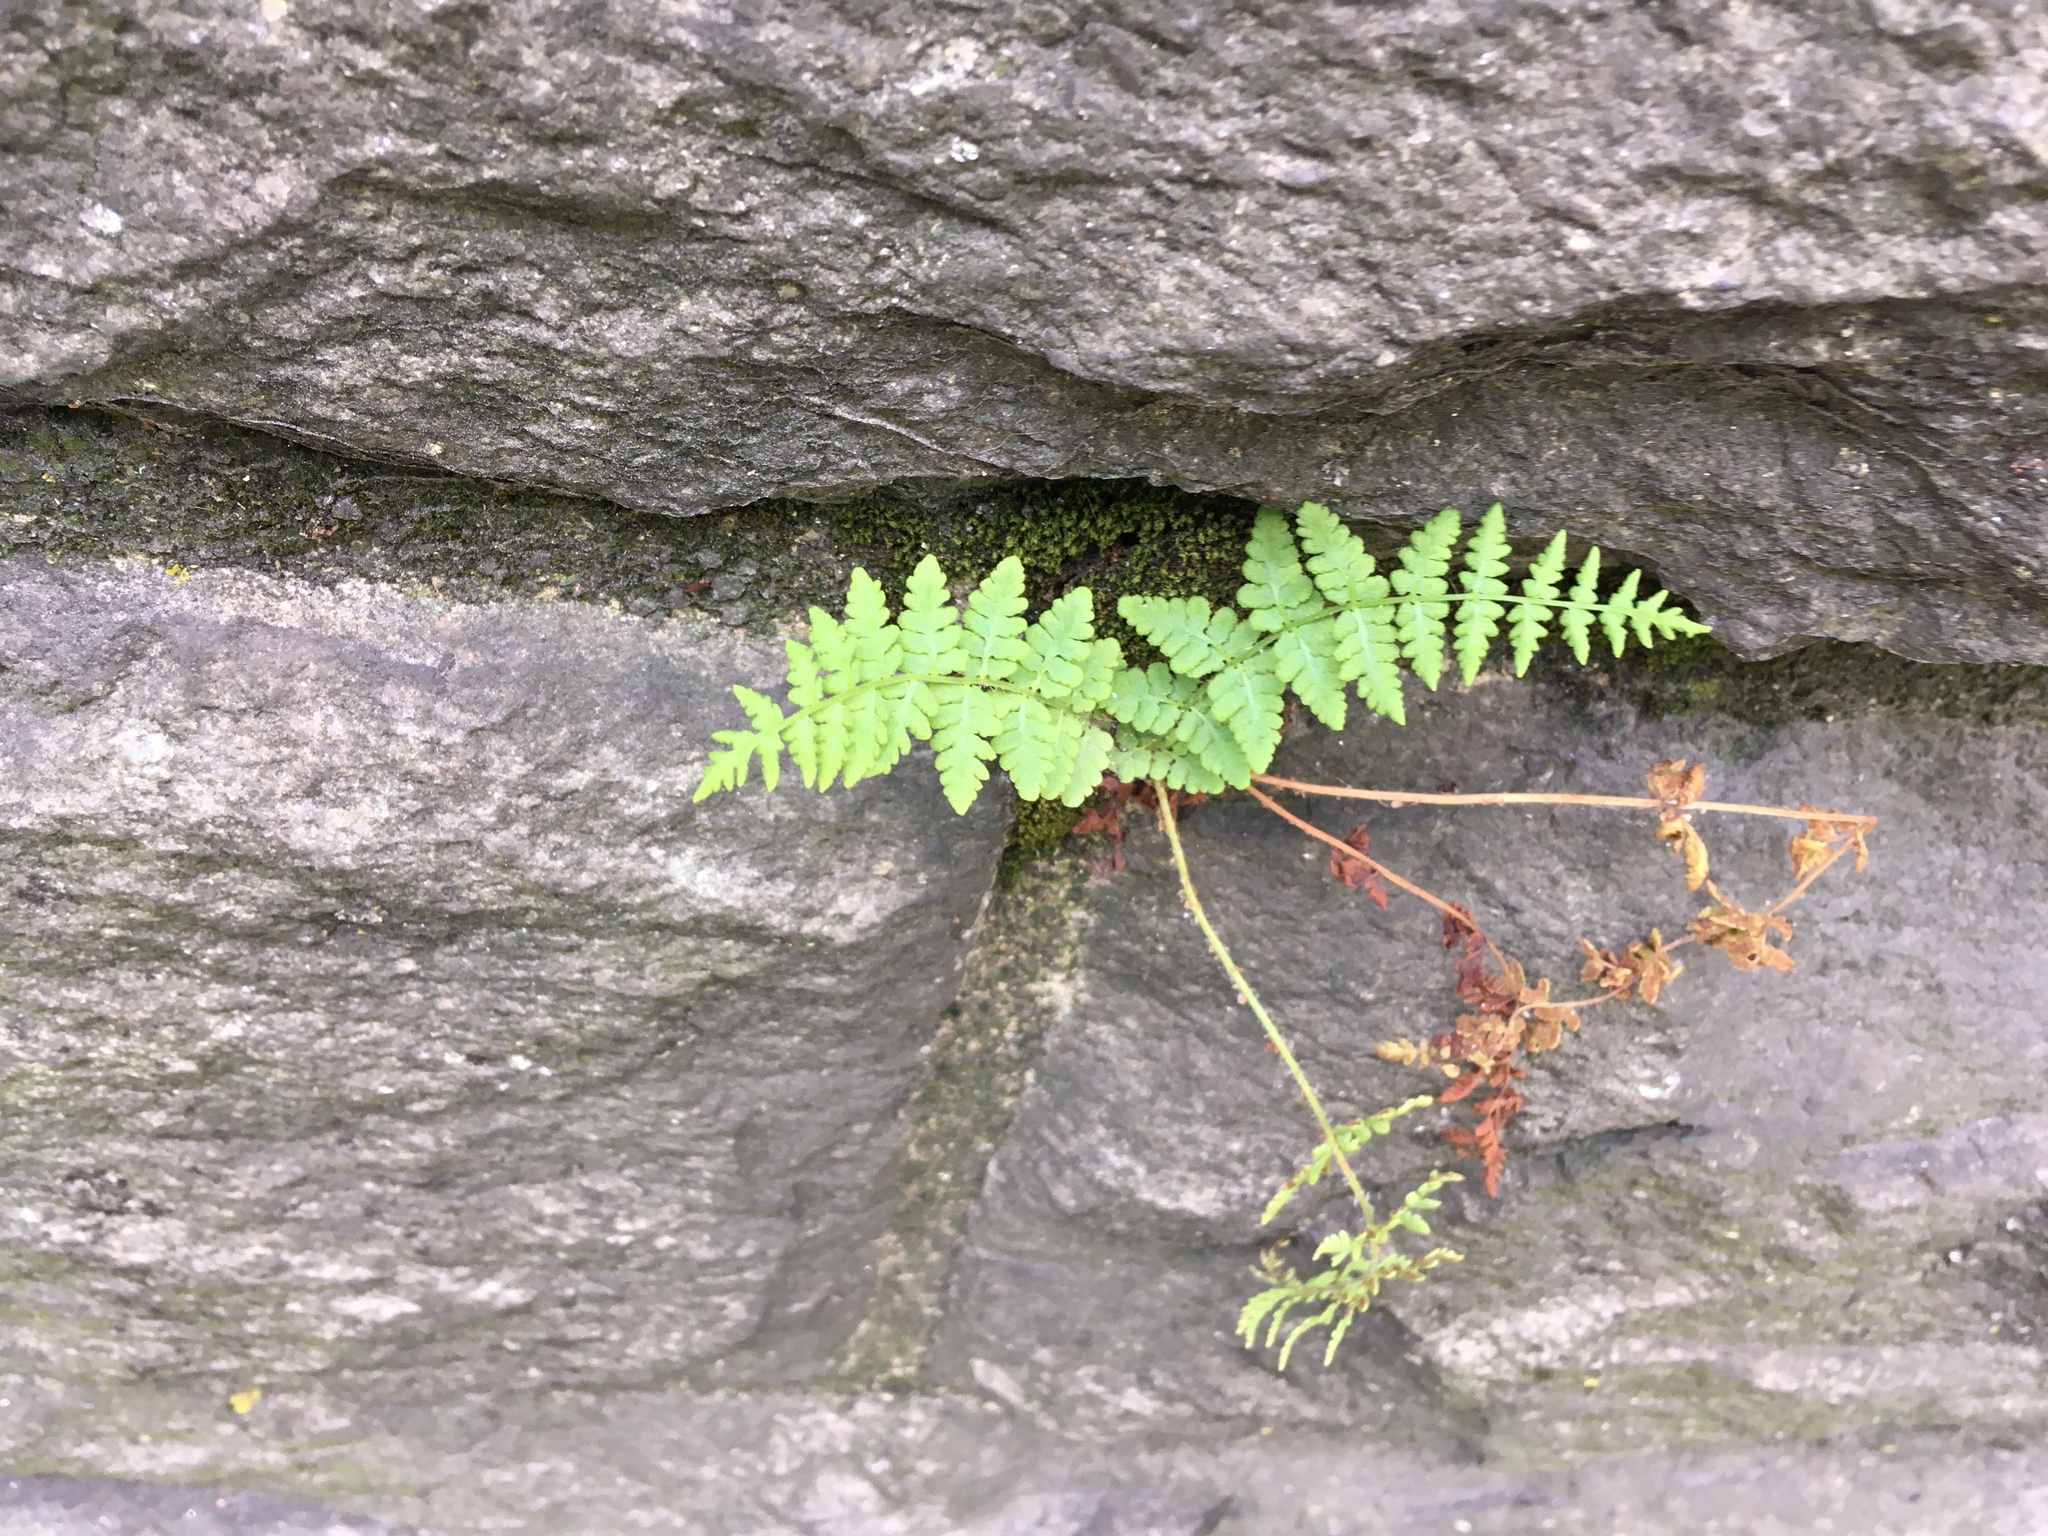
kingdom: Plantae
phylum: Tracheophyta
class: Polypodiopsida
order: Polypodiales
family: Woodsiaceae
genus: Physematium
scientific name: Physematium obtusum
